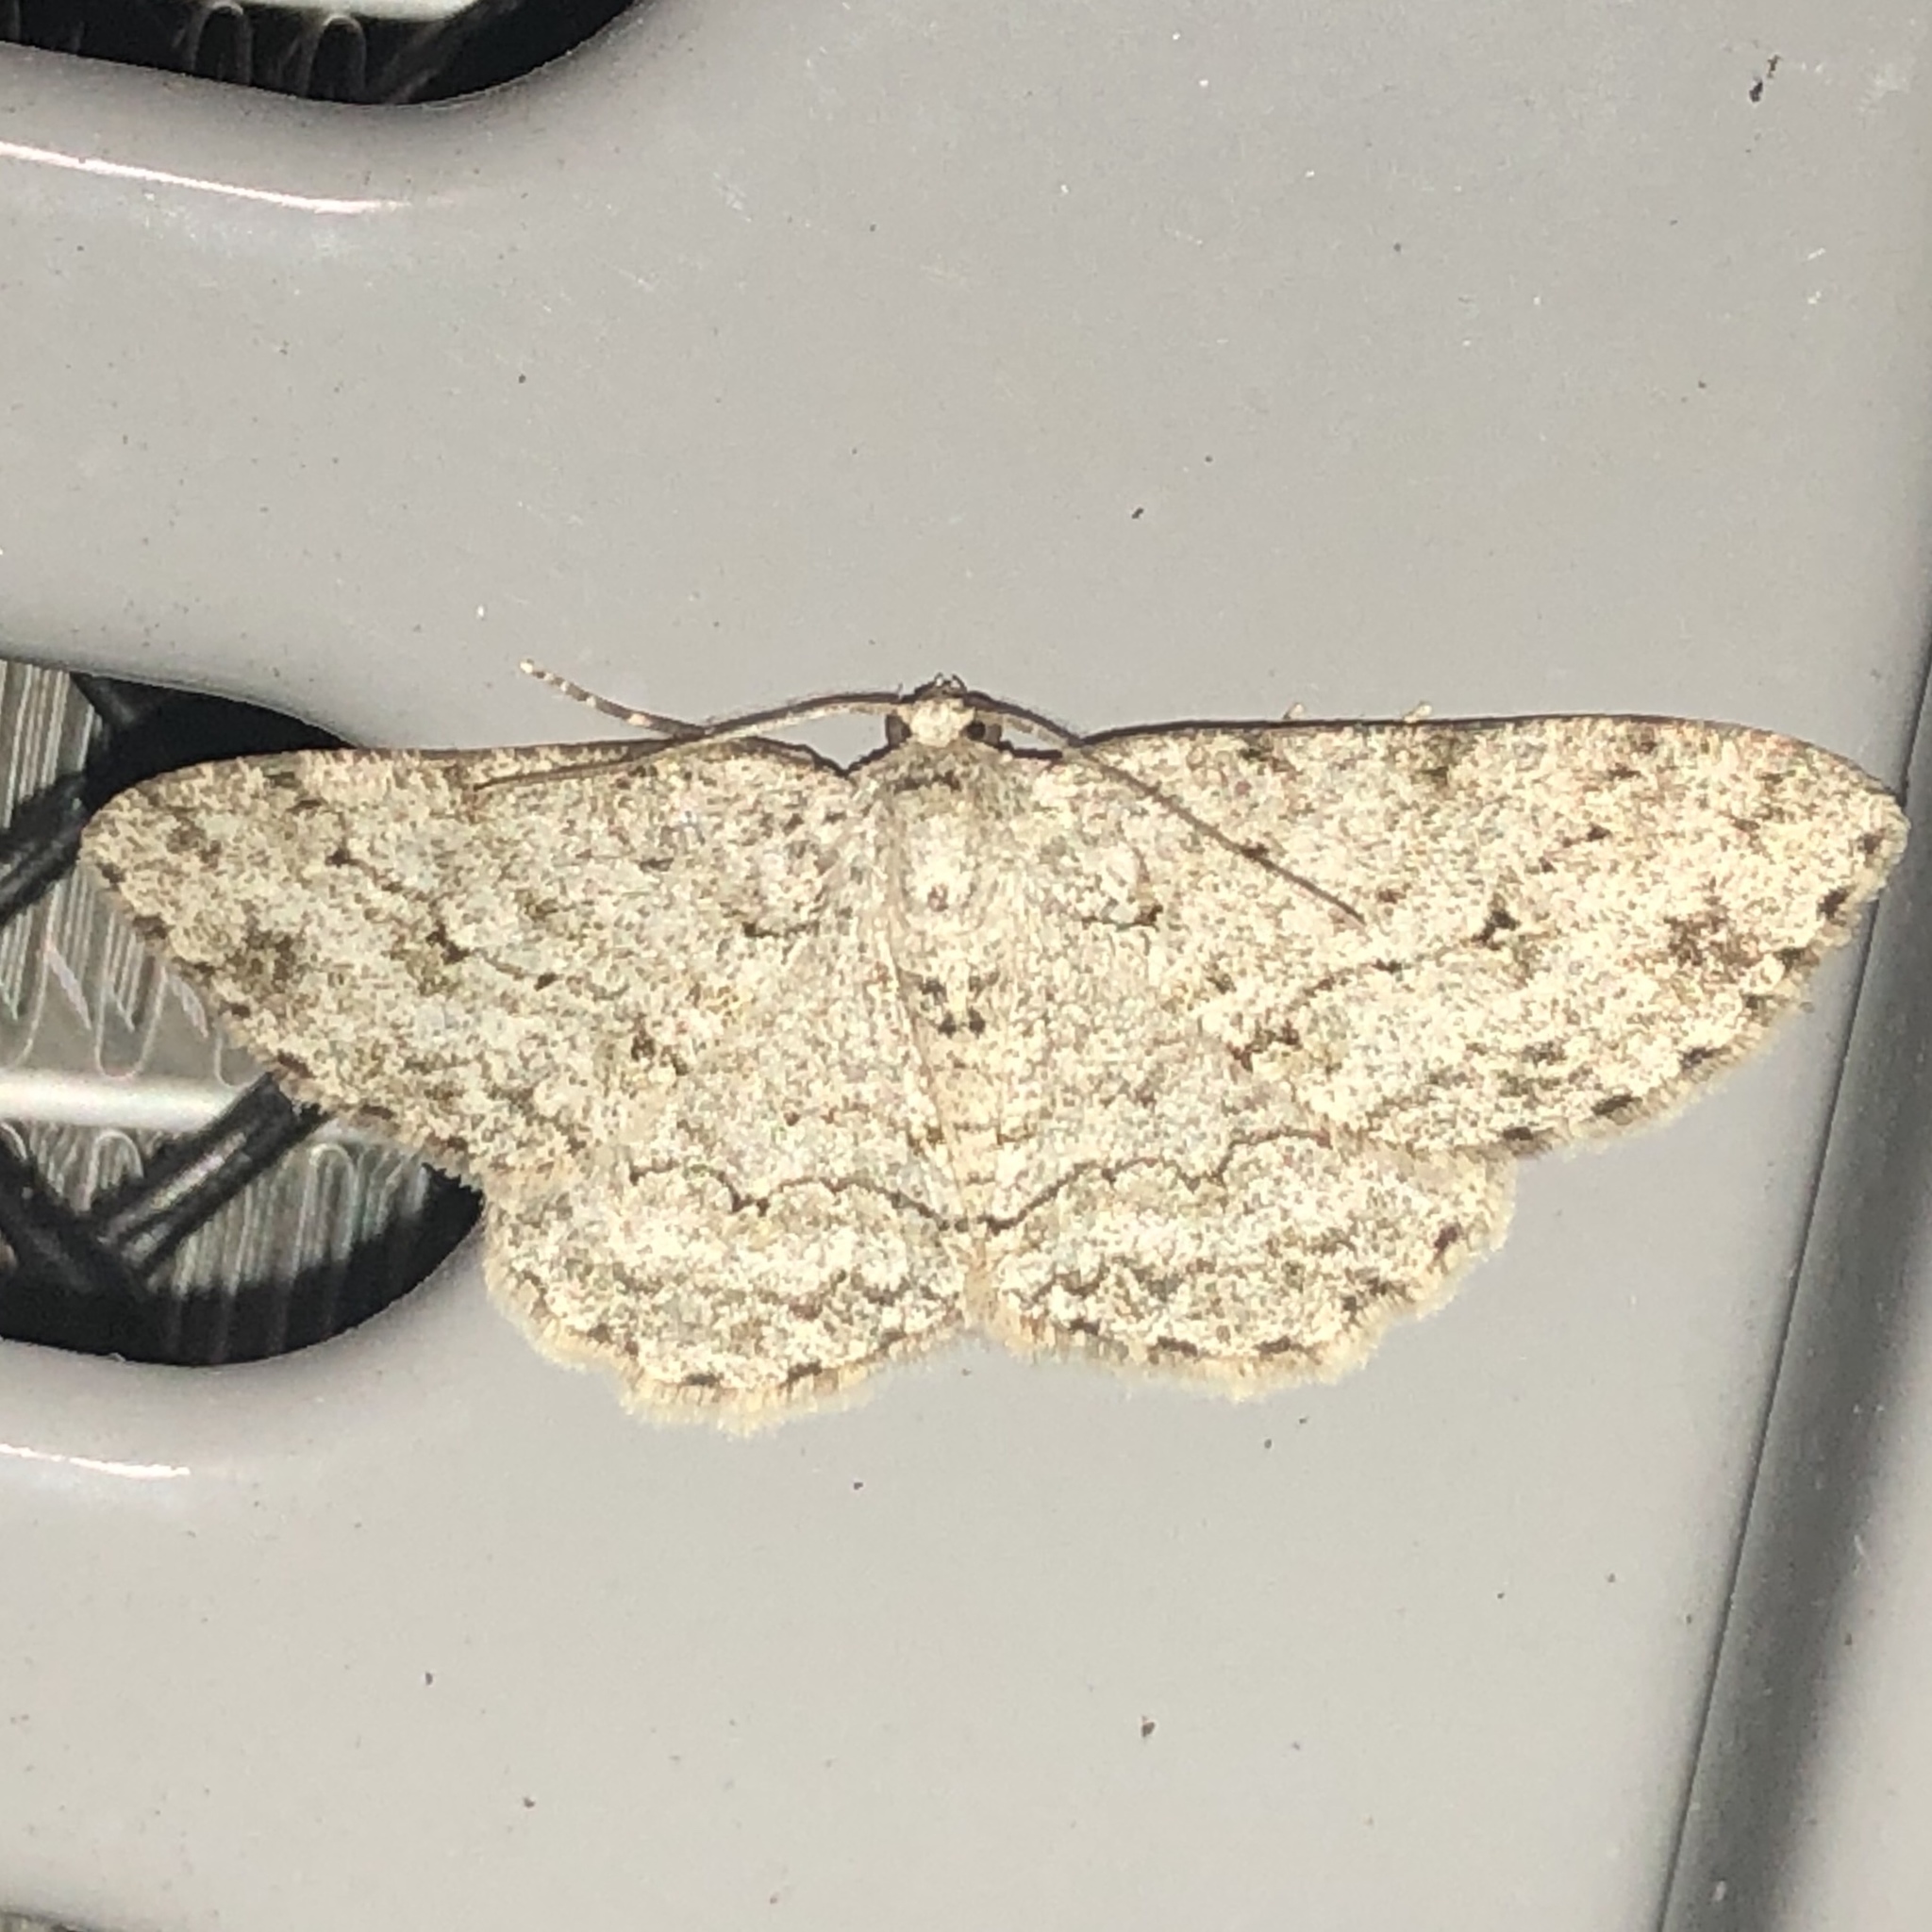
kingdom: Animalia
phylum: Arthropoda
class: Insecta
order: Lepidoptera
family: Geometridae
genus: Ectropis
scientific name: Ectropis crepuscularia
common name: Engrailed
